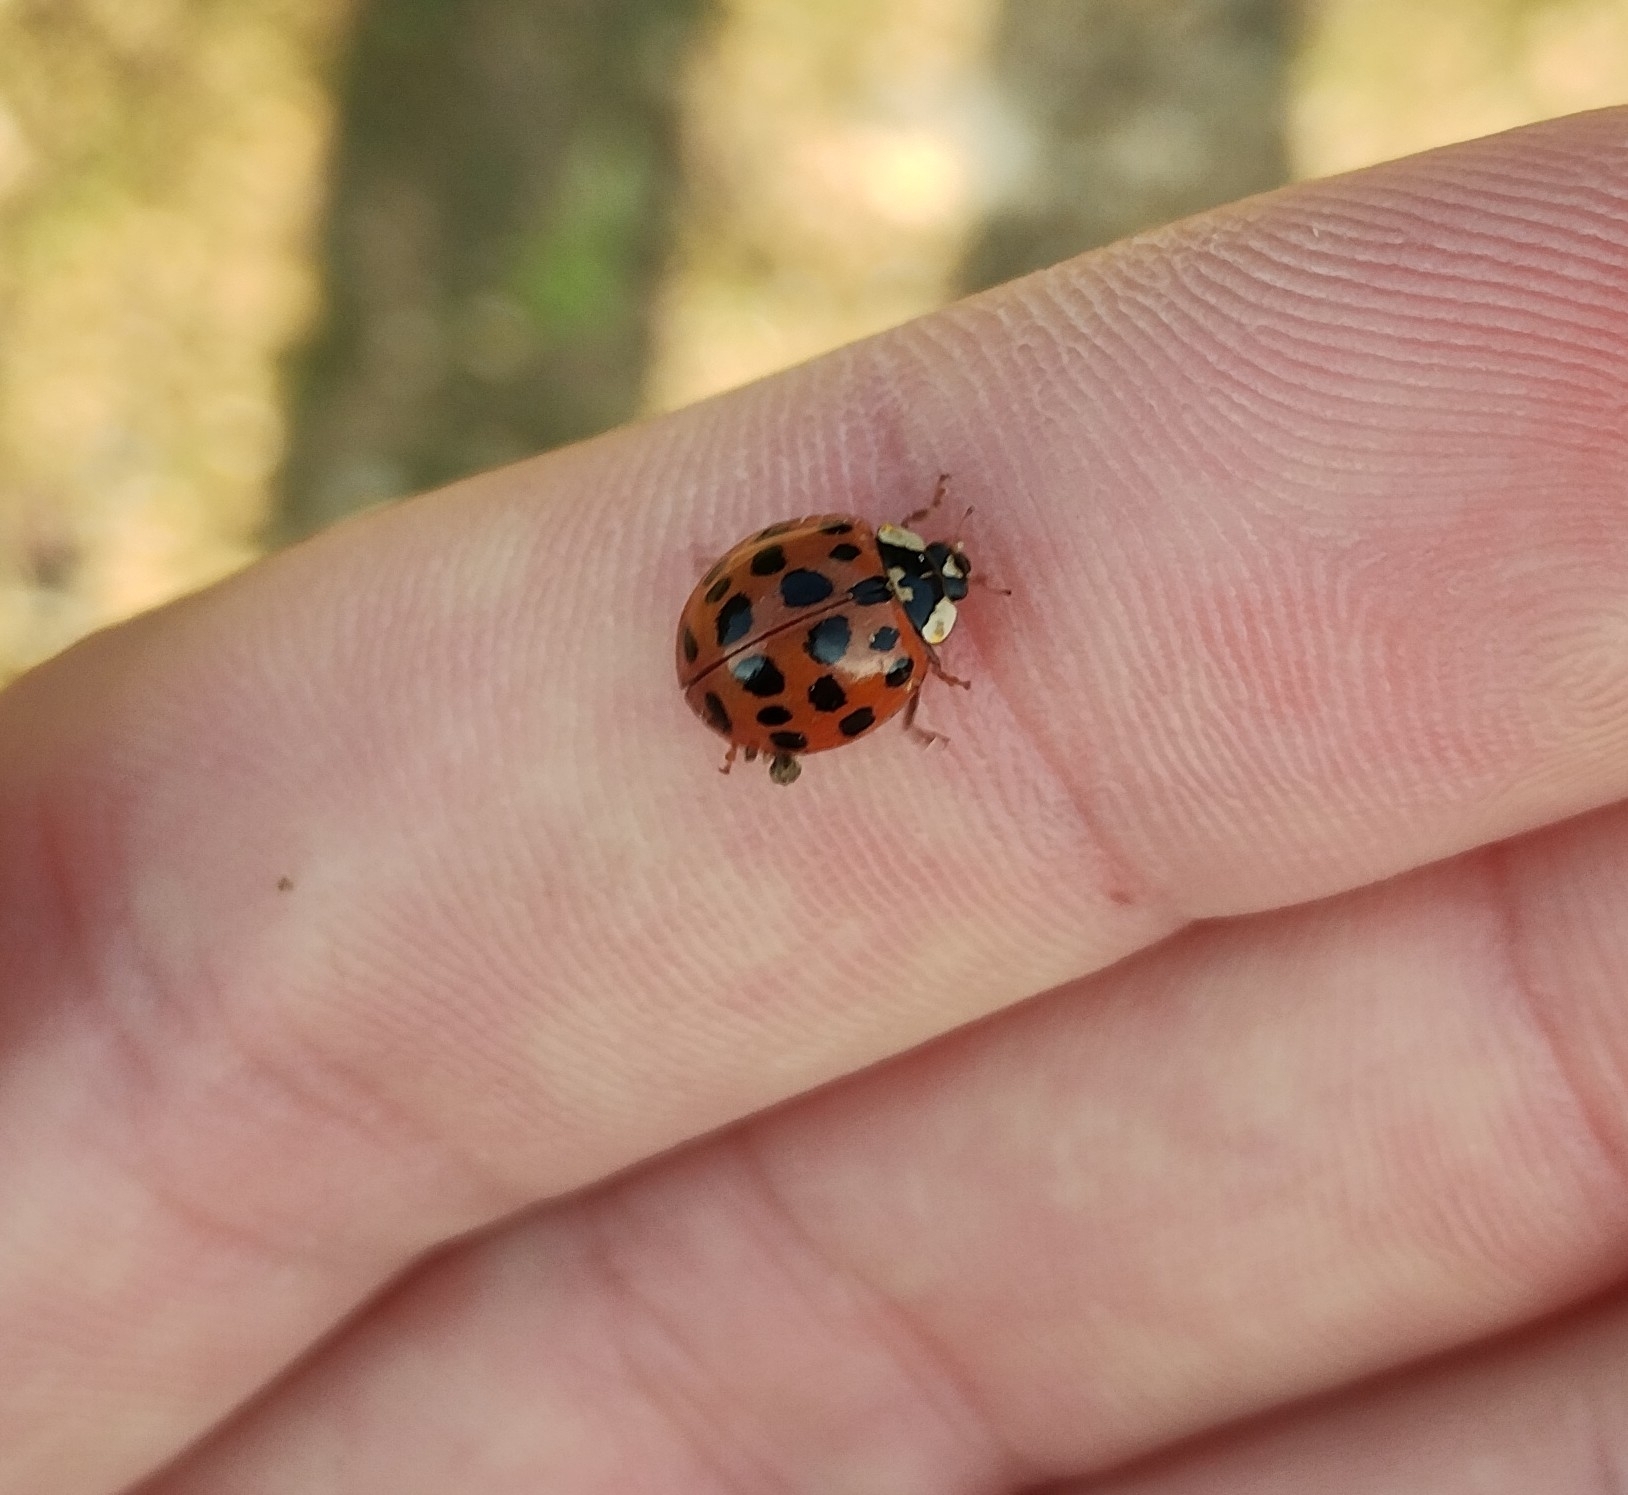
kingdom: Animalia
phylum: Arthropoda
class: Insecta
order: Coleoptera
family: Coccinellidae
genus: Harmonia
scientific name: Harmonia axyridis
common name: Harlequin ladybird
